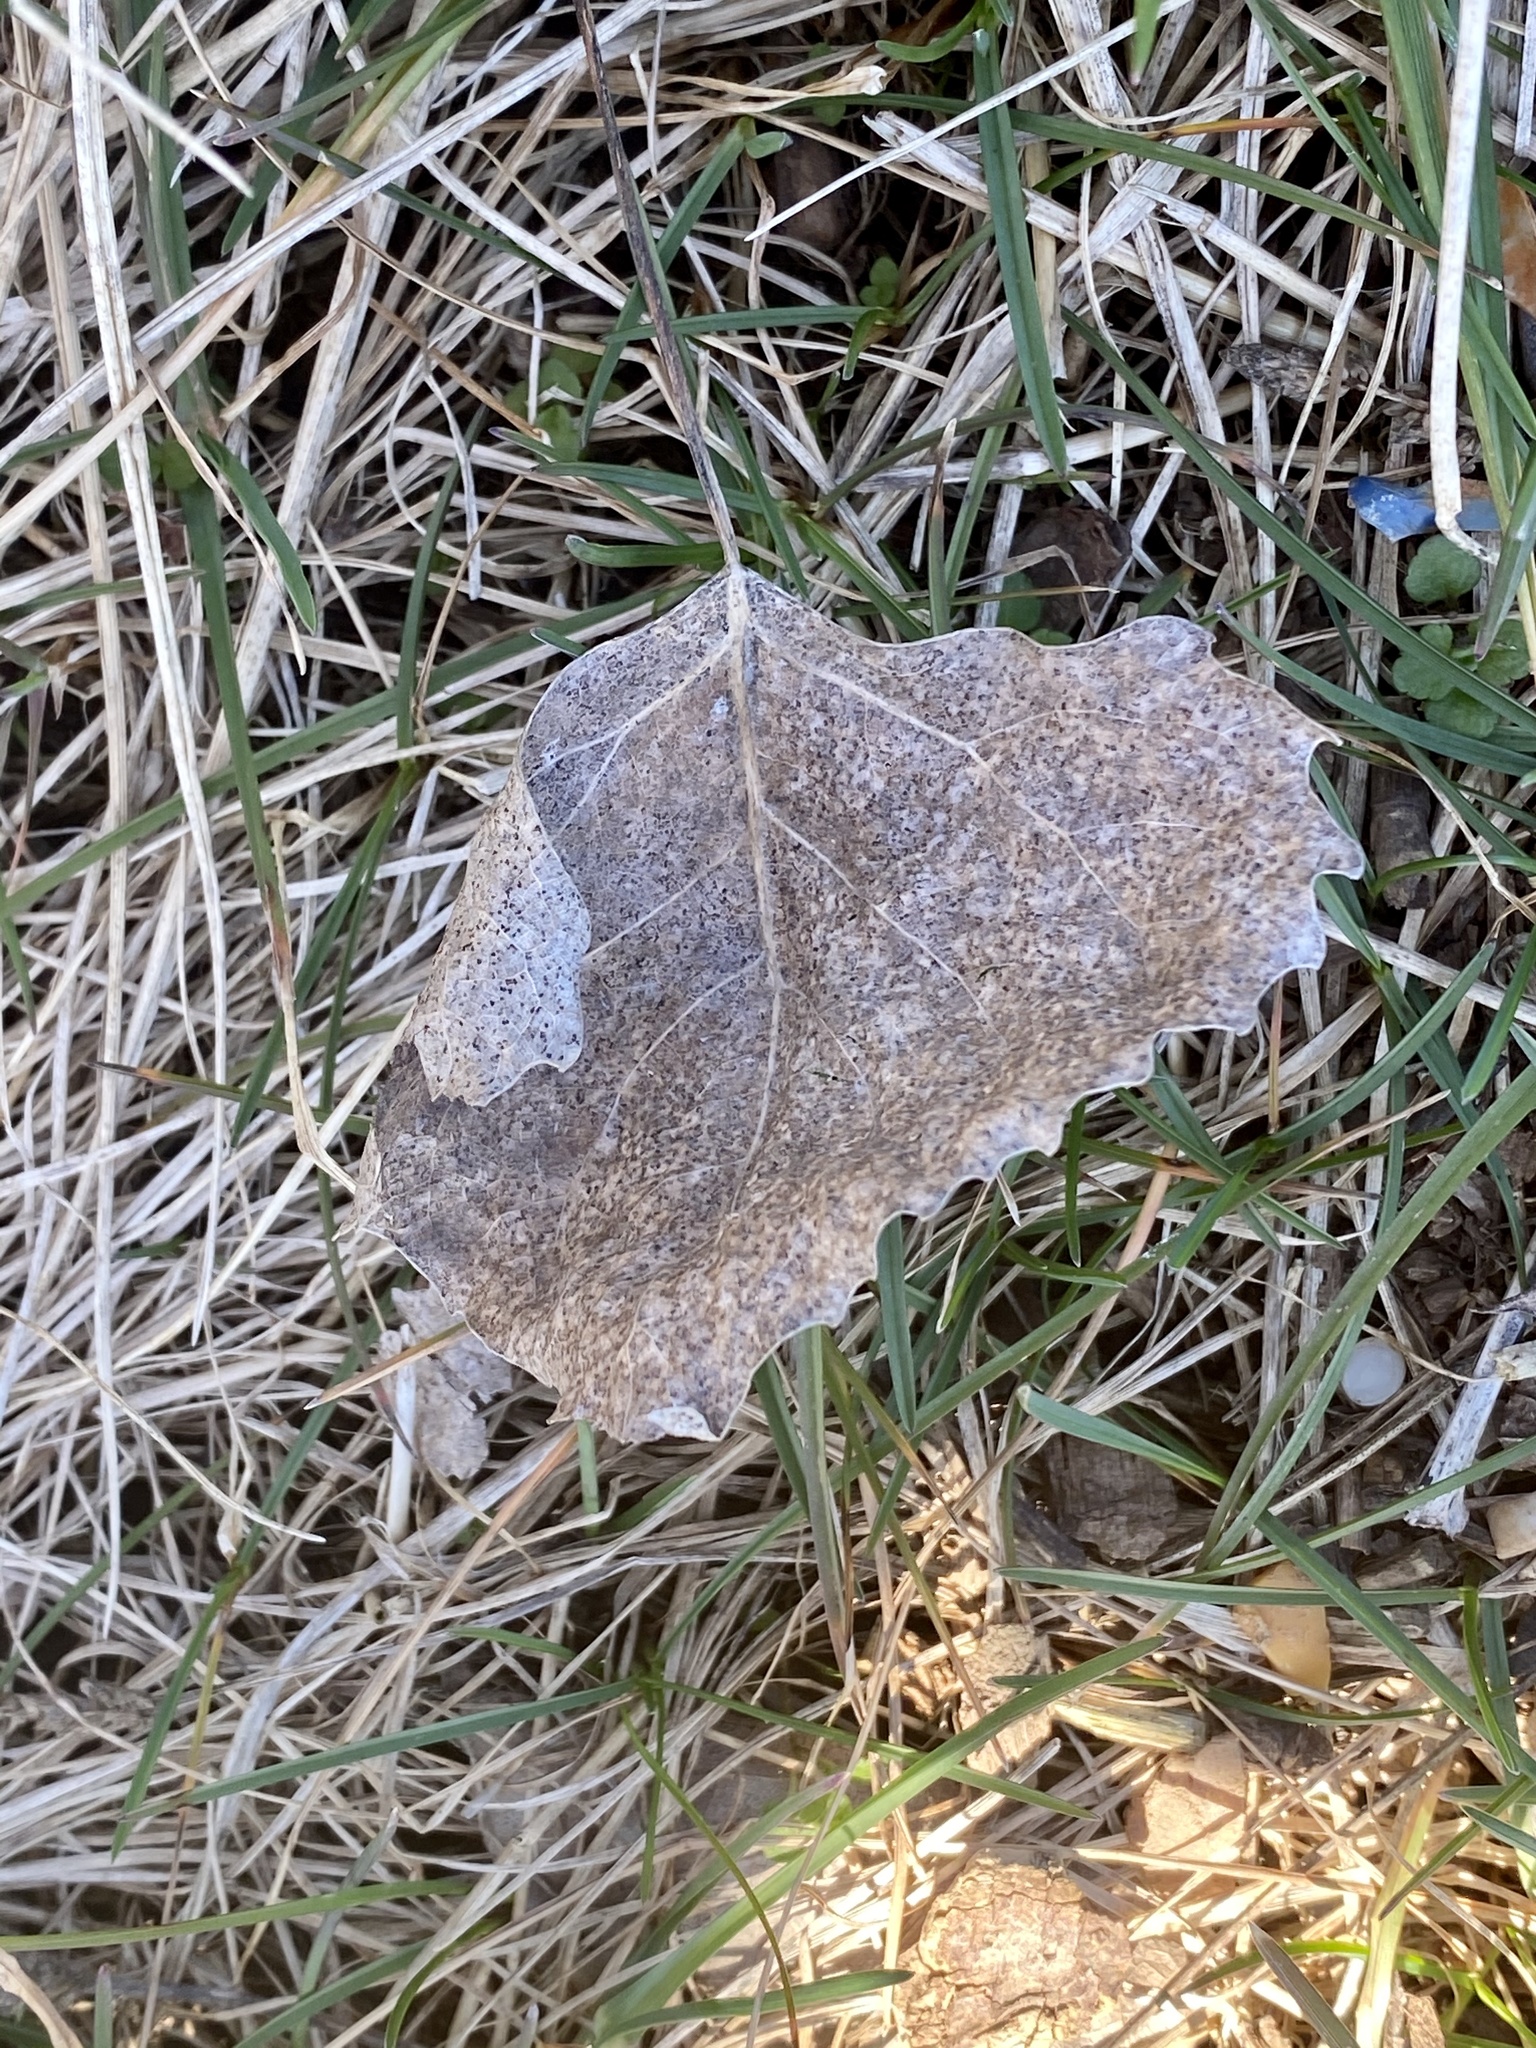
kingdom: Plantae
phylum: Tracheophyta
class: Magnoliopsida
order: Malpighiales
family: Salicaceae
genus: Populus
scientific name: Populus deltoides
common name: Eastern cottonwood
